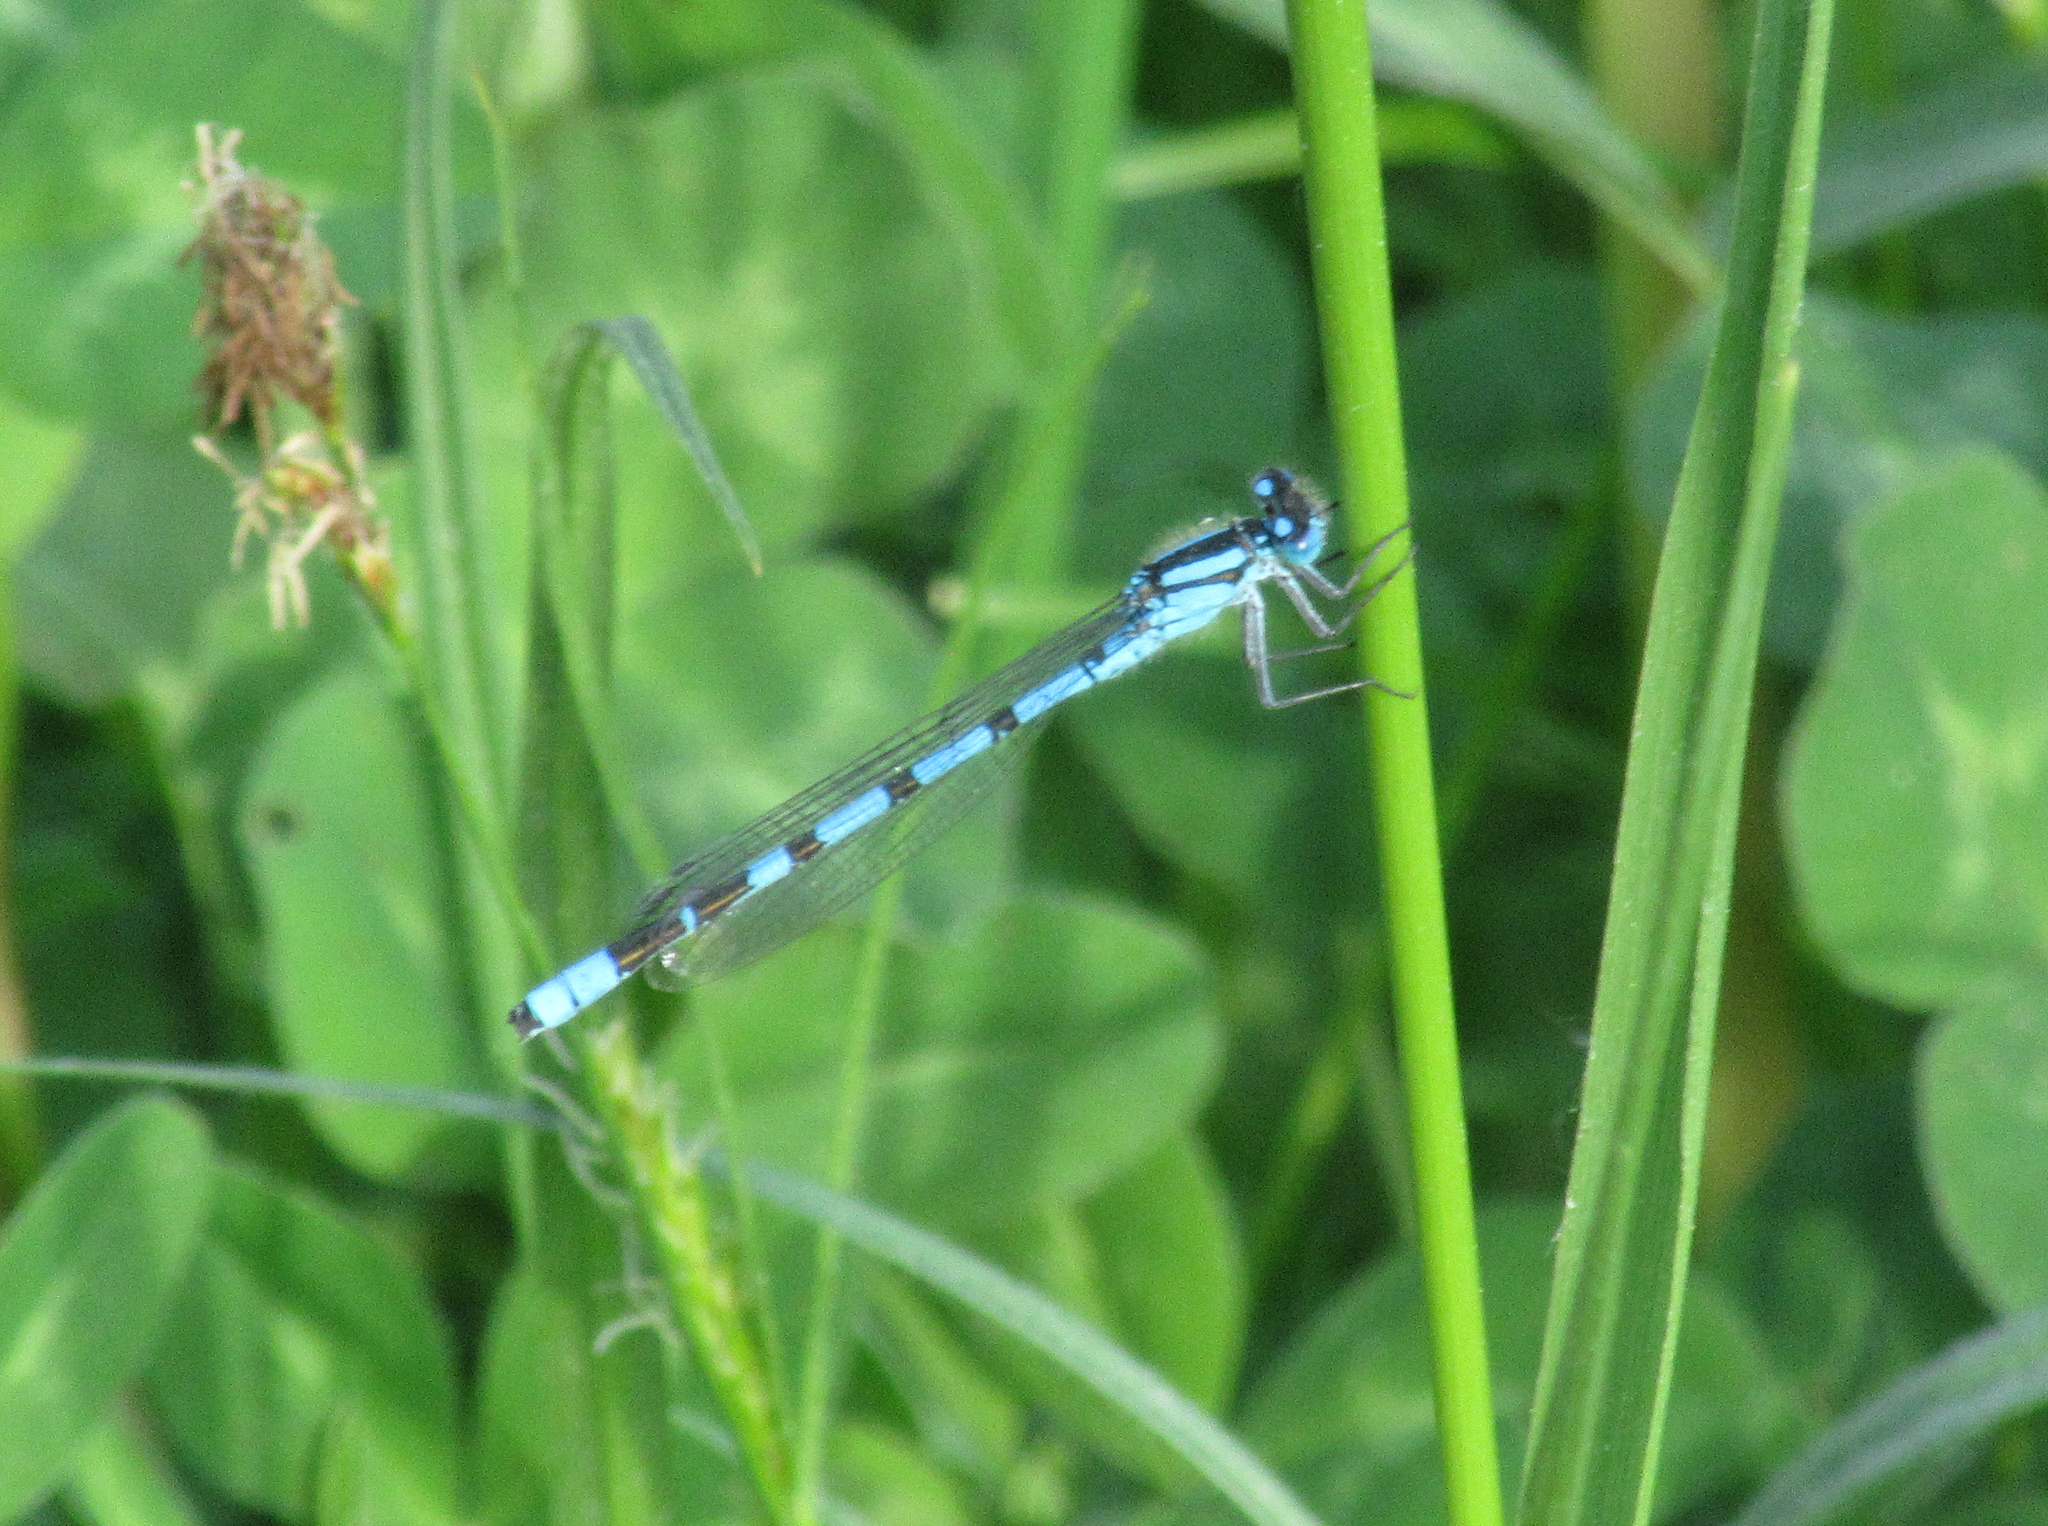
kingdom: Animalia
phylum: Arthropoda
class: Insecta
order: Odonata
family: Coenagrionidae
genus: Enallagma
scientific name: Enallagma cyathigerum
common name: Common blue damselfly
